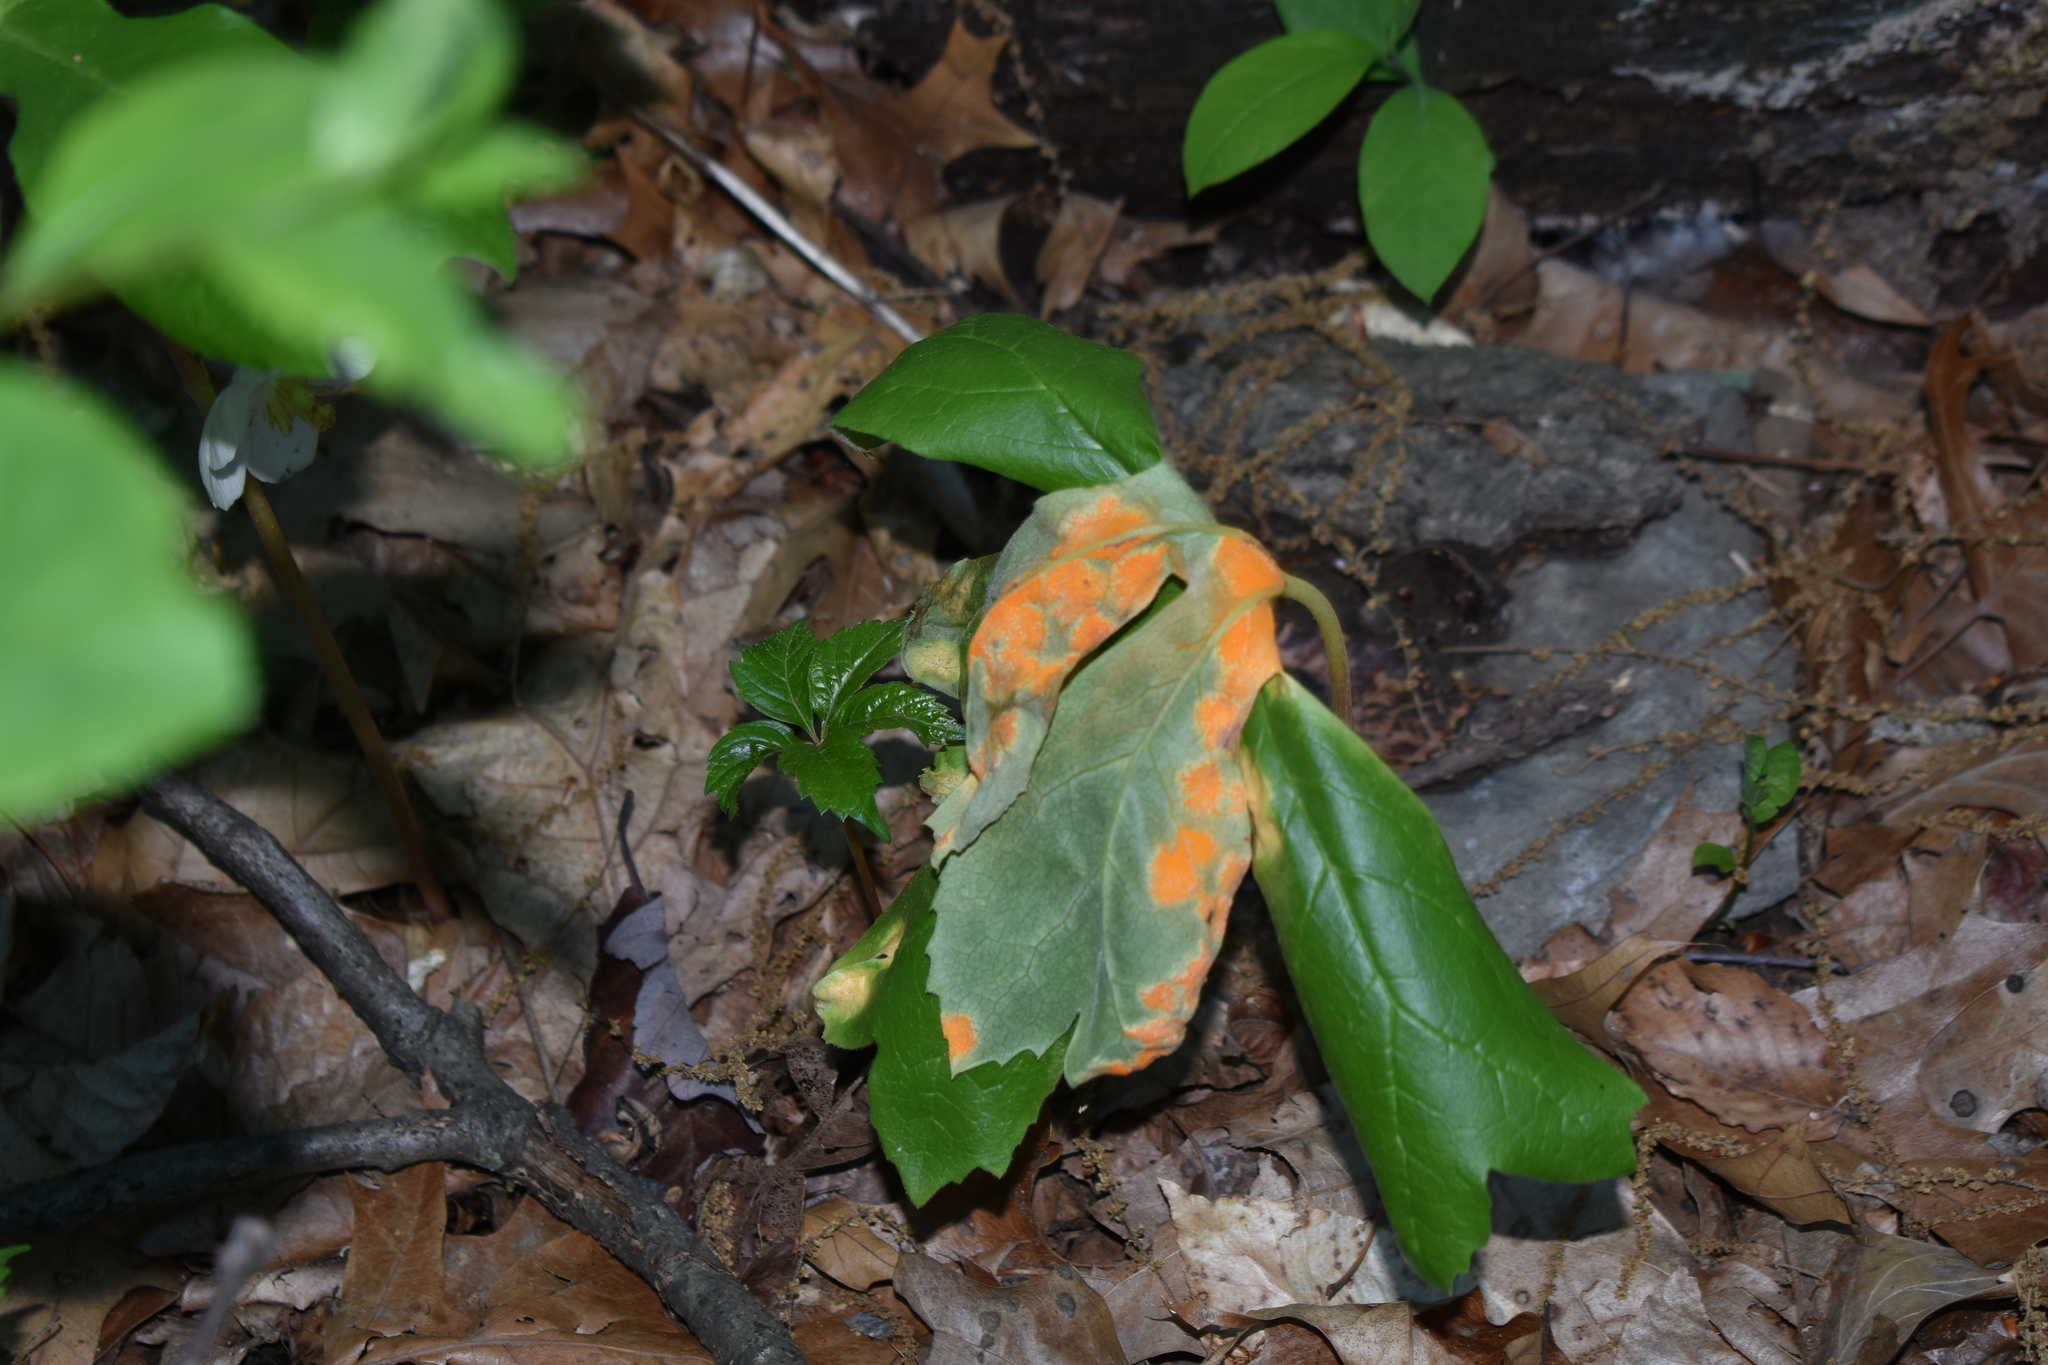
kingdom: Fungi
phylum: Basidiomycota
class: Pucciniomycetes
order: Pucciniales
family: Pucciniaceae
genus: Puccinia
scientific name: Puccinia podophylli
